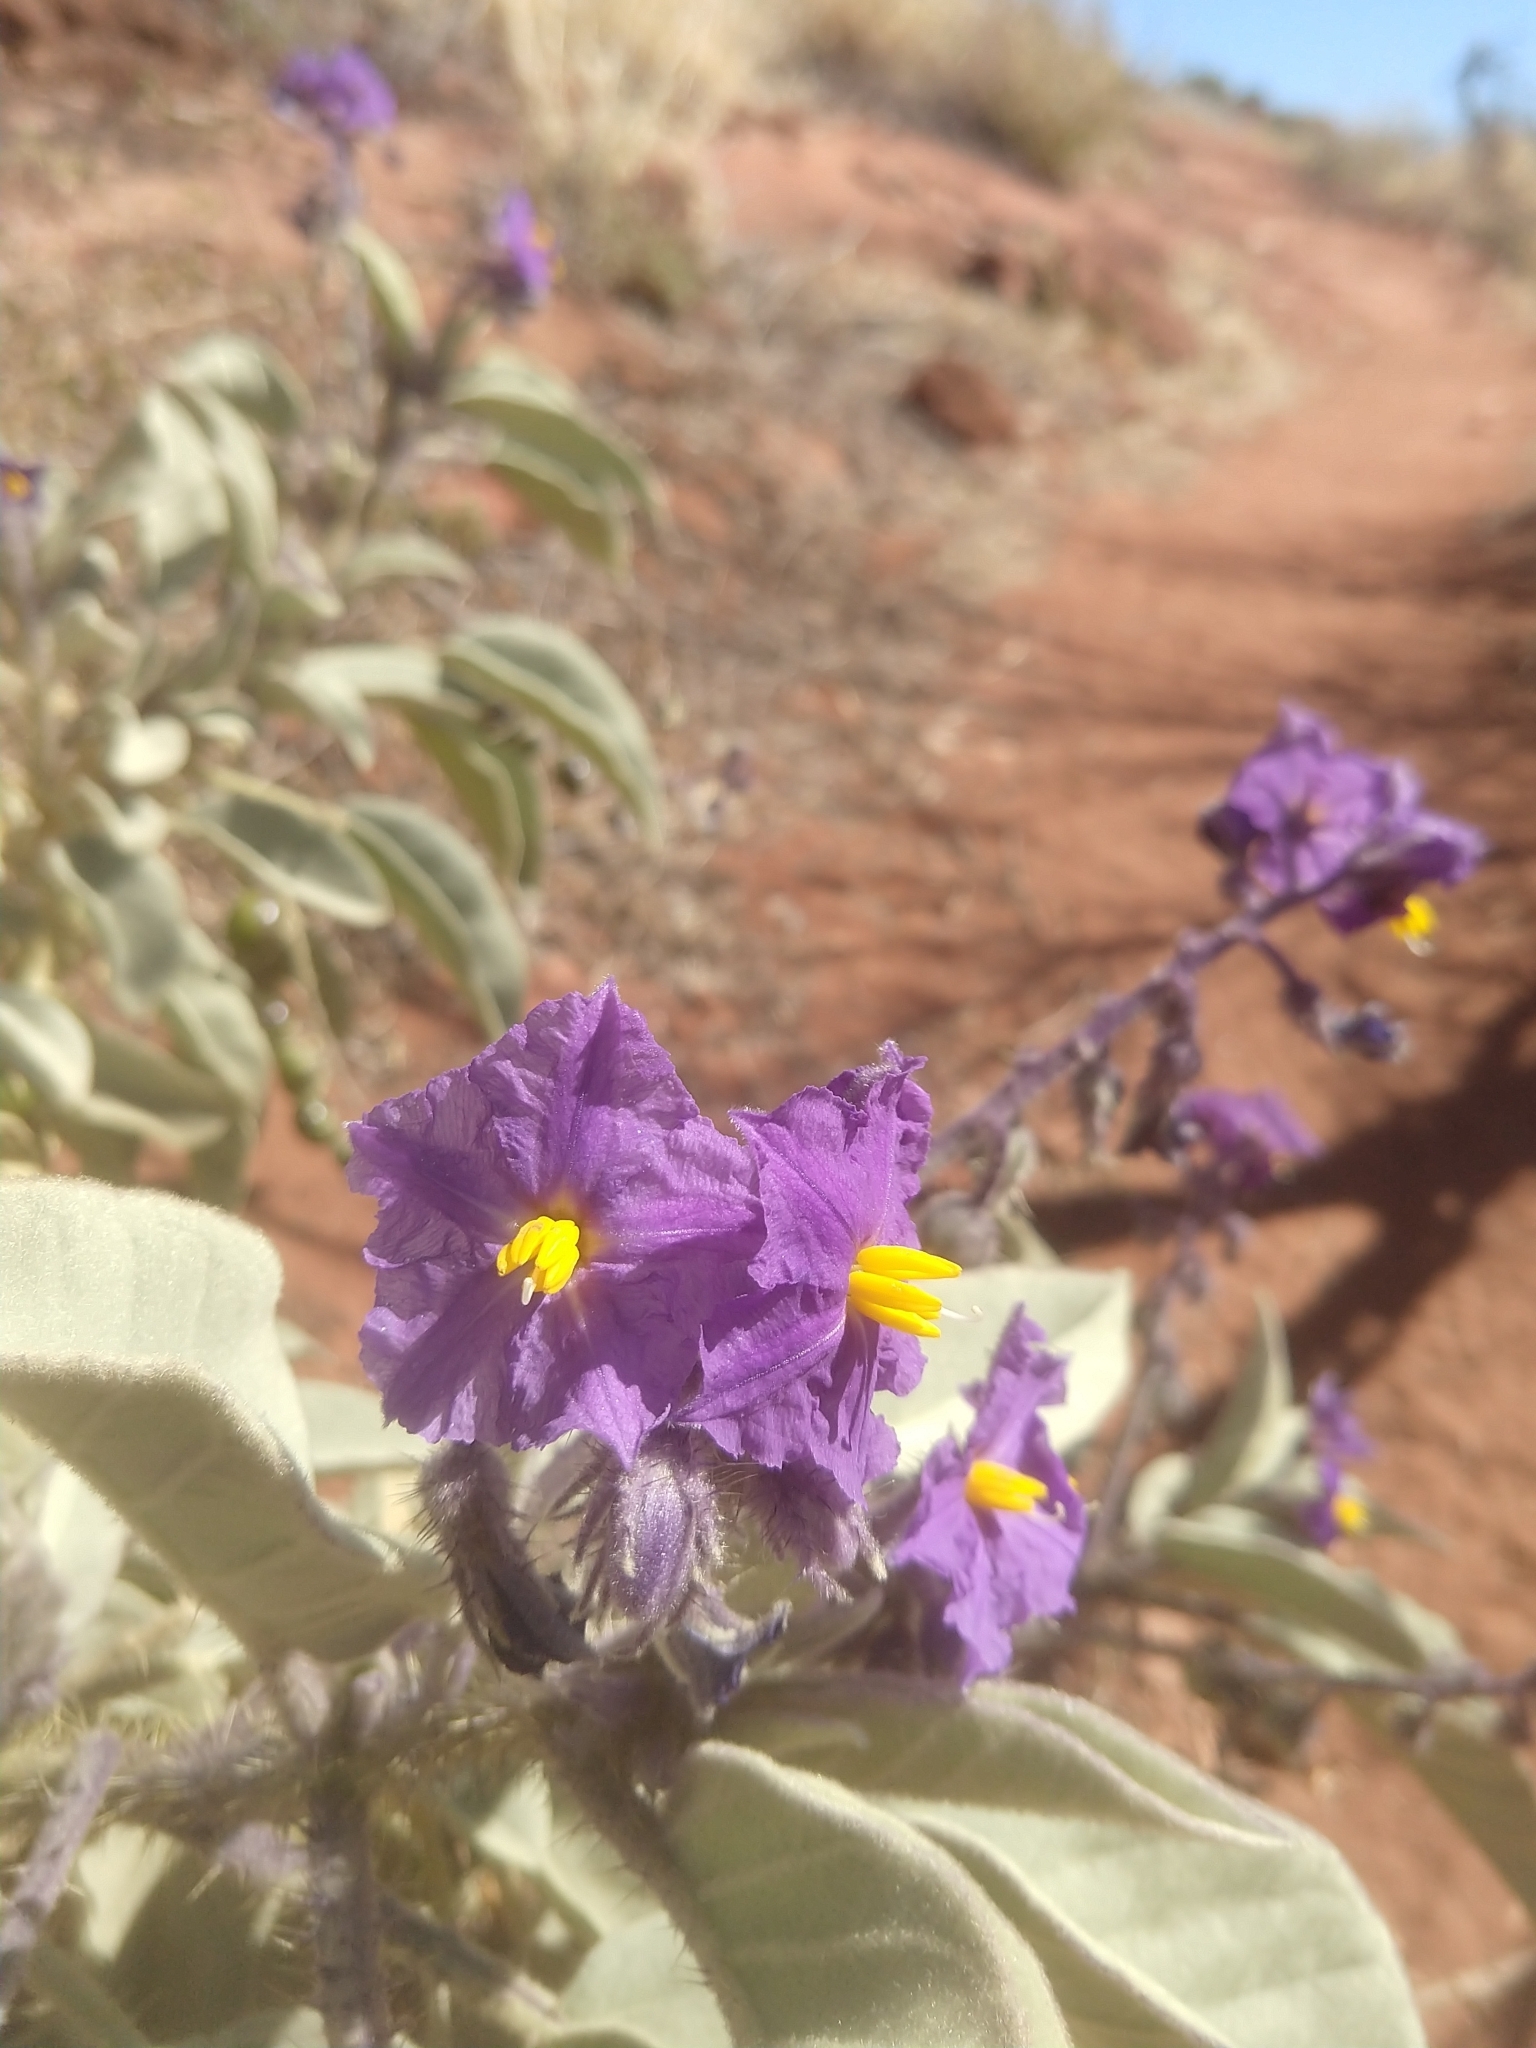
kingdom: Plantae
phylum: Tracheophyta
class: Magnoliopsida
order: Solanales
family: Solanaceae
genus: Solanum
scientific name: Solanum quadriloculatum
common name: Wild tomato
